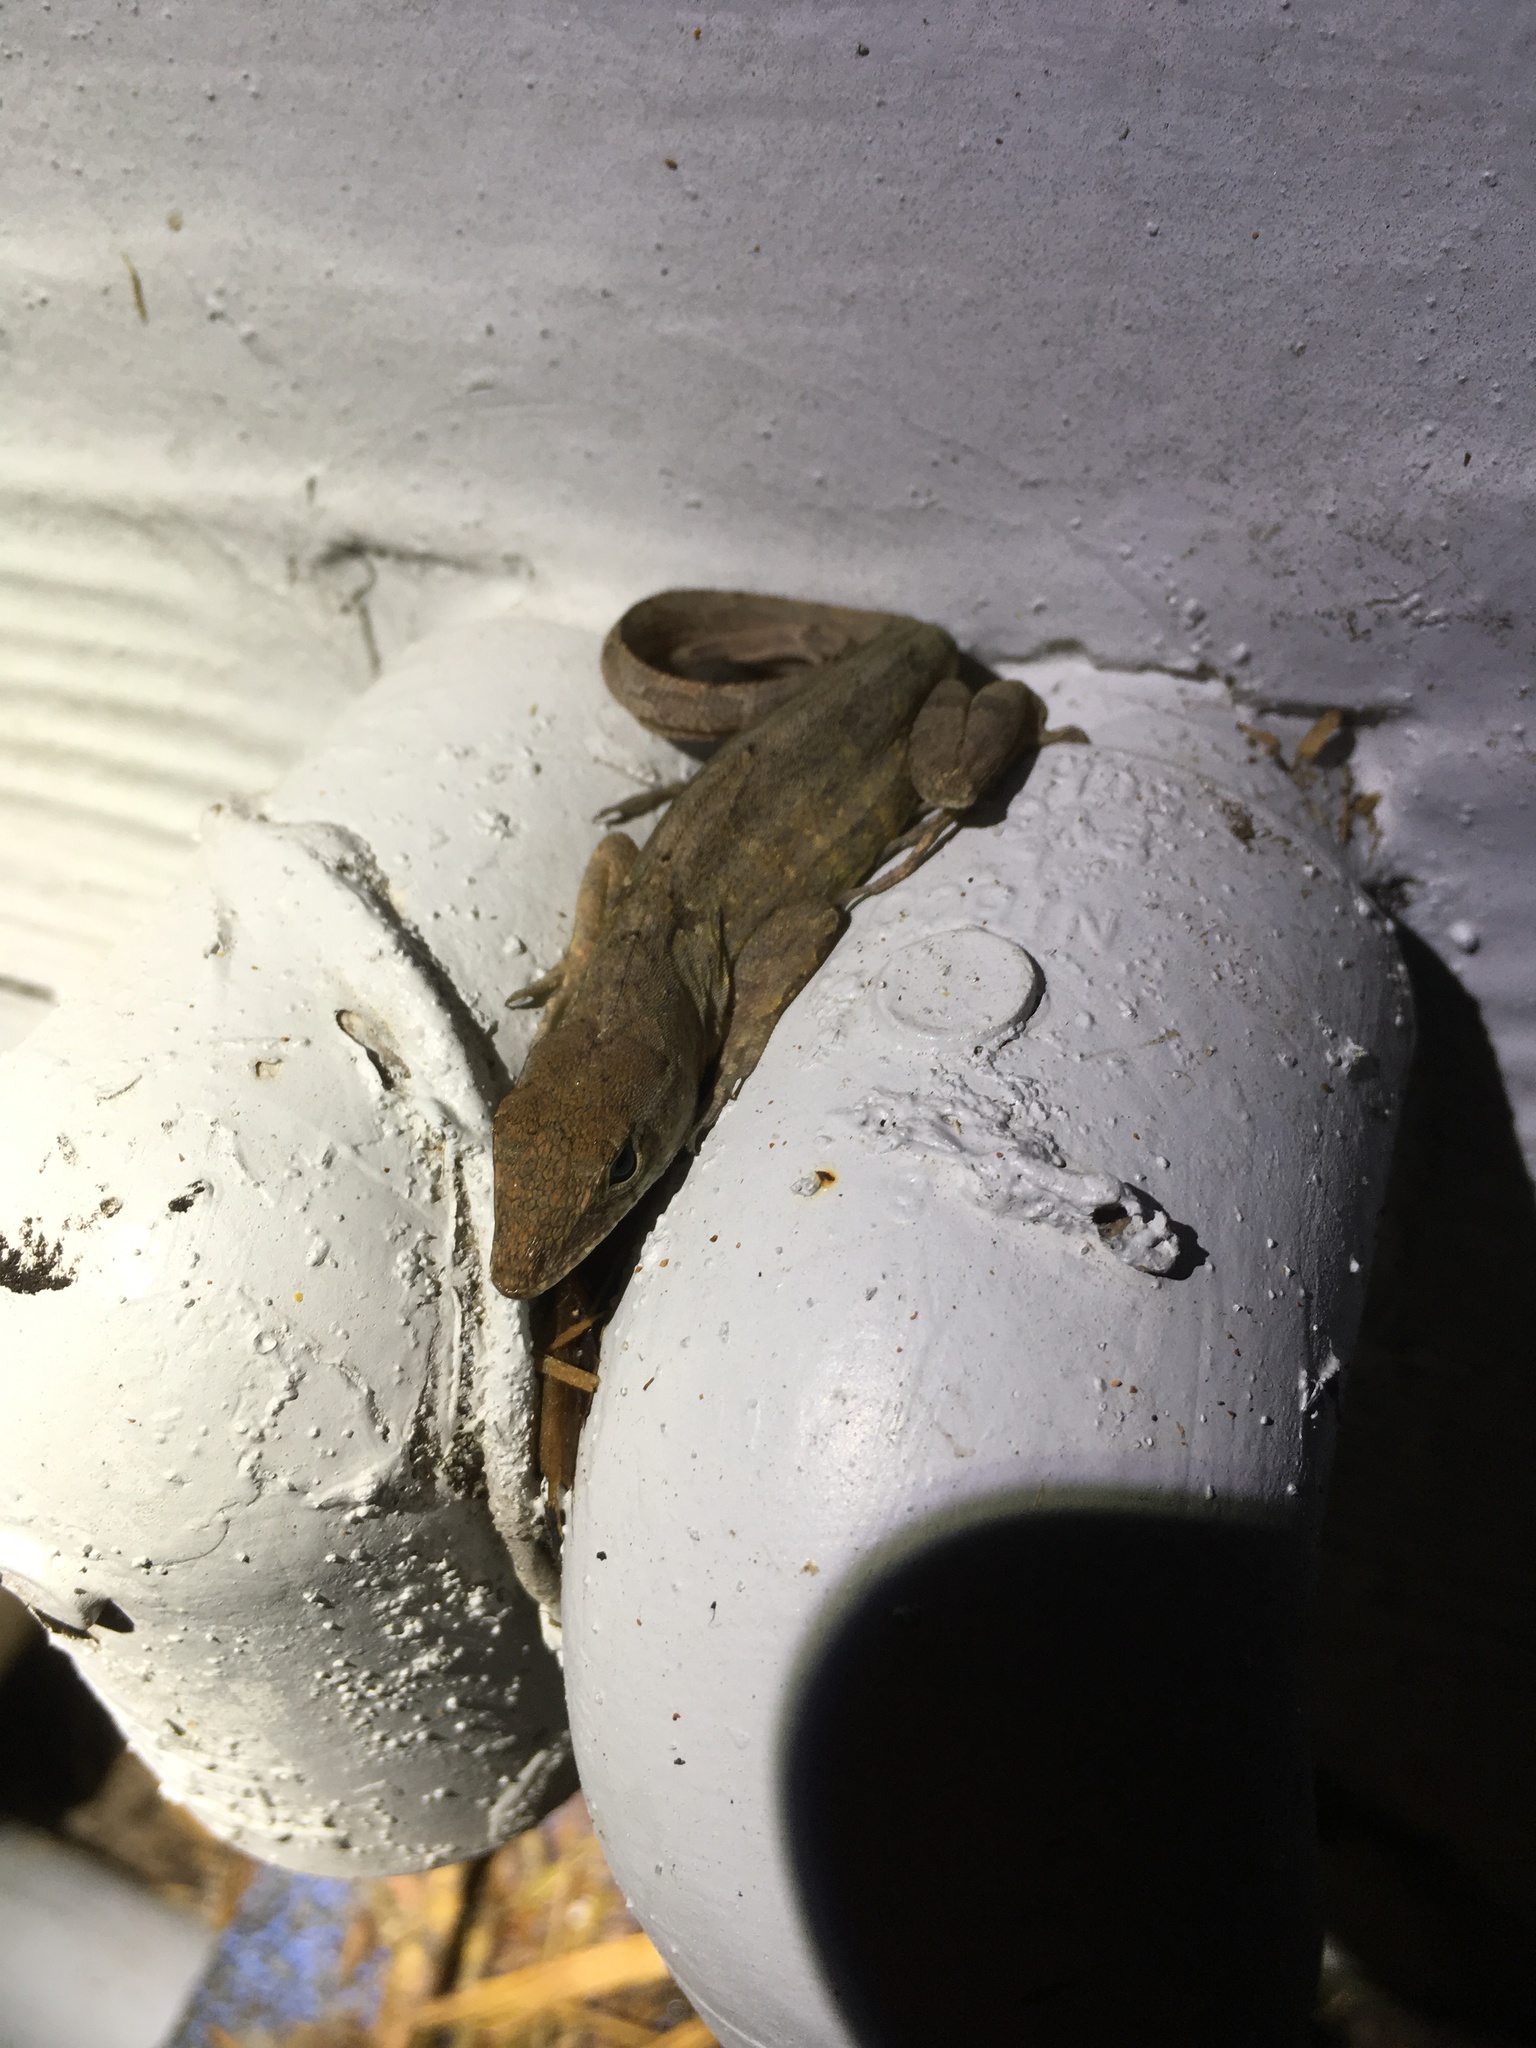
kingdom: Animalia
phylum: Chordata
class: Squamata
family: Dactyloidae
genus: Anolis
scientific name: Anolis sagrei
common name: Brown anole
